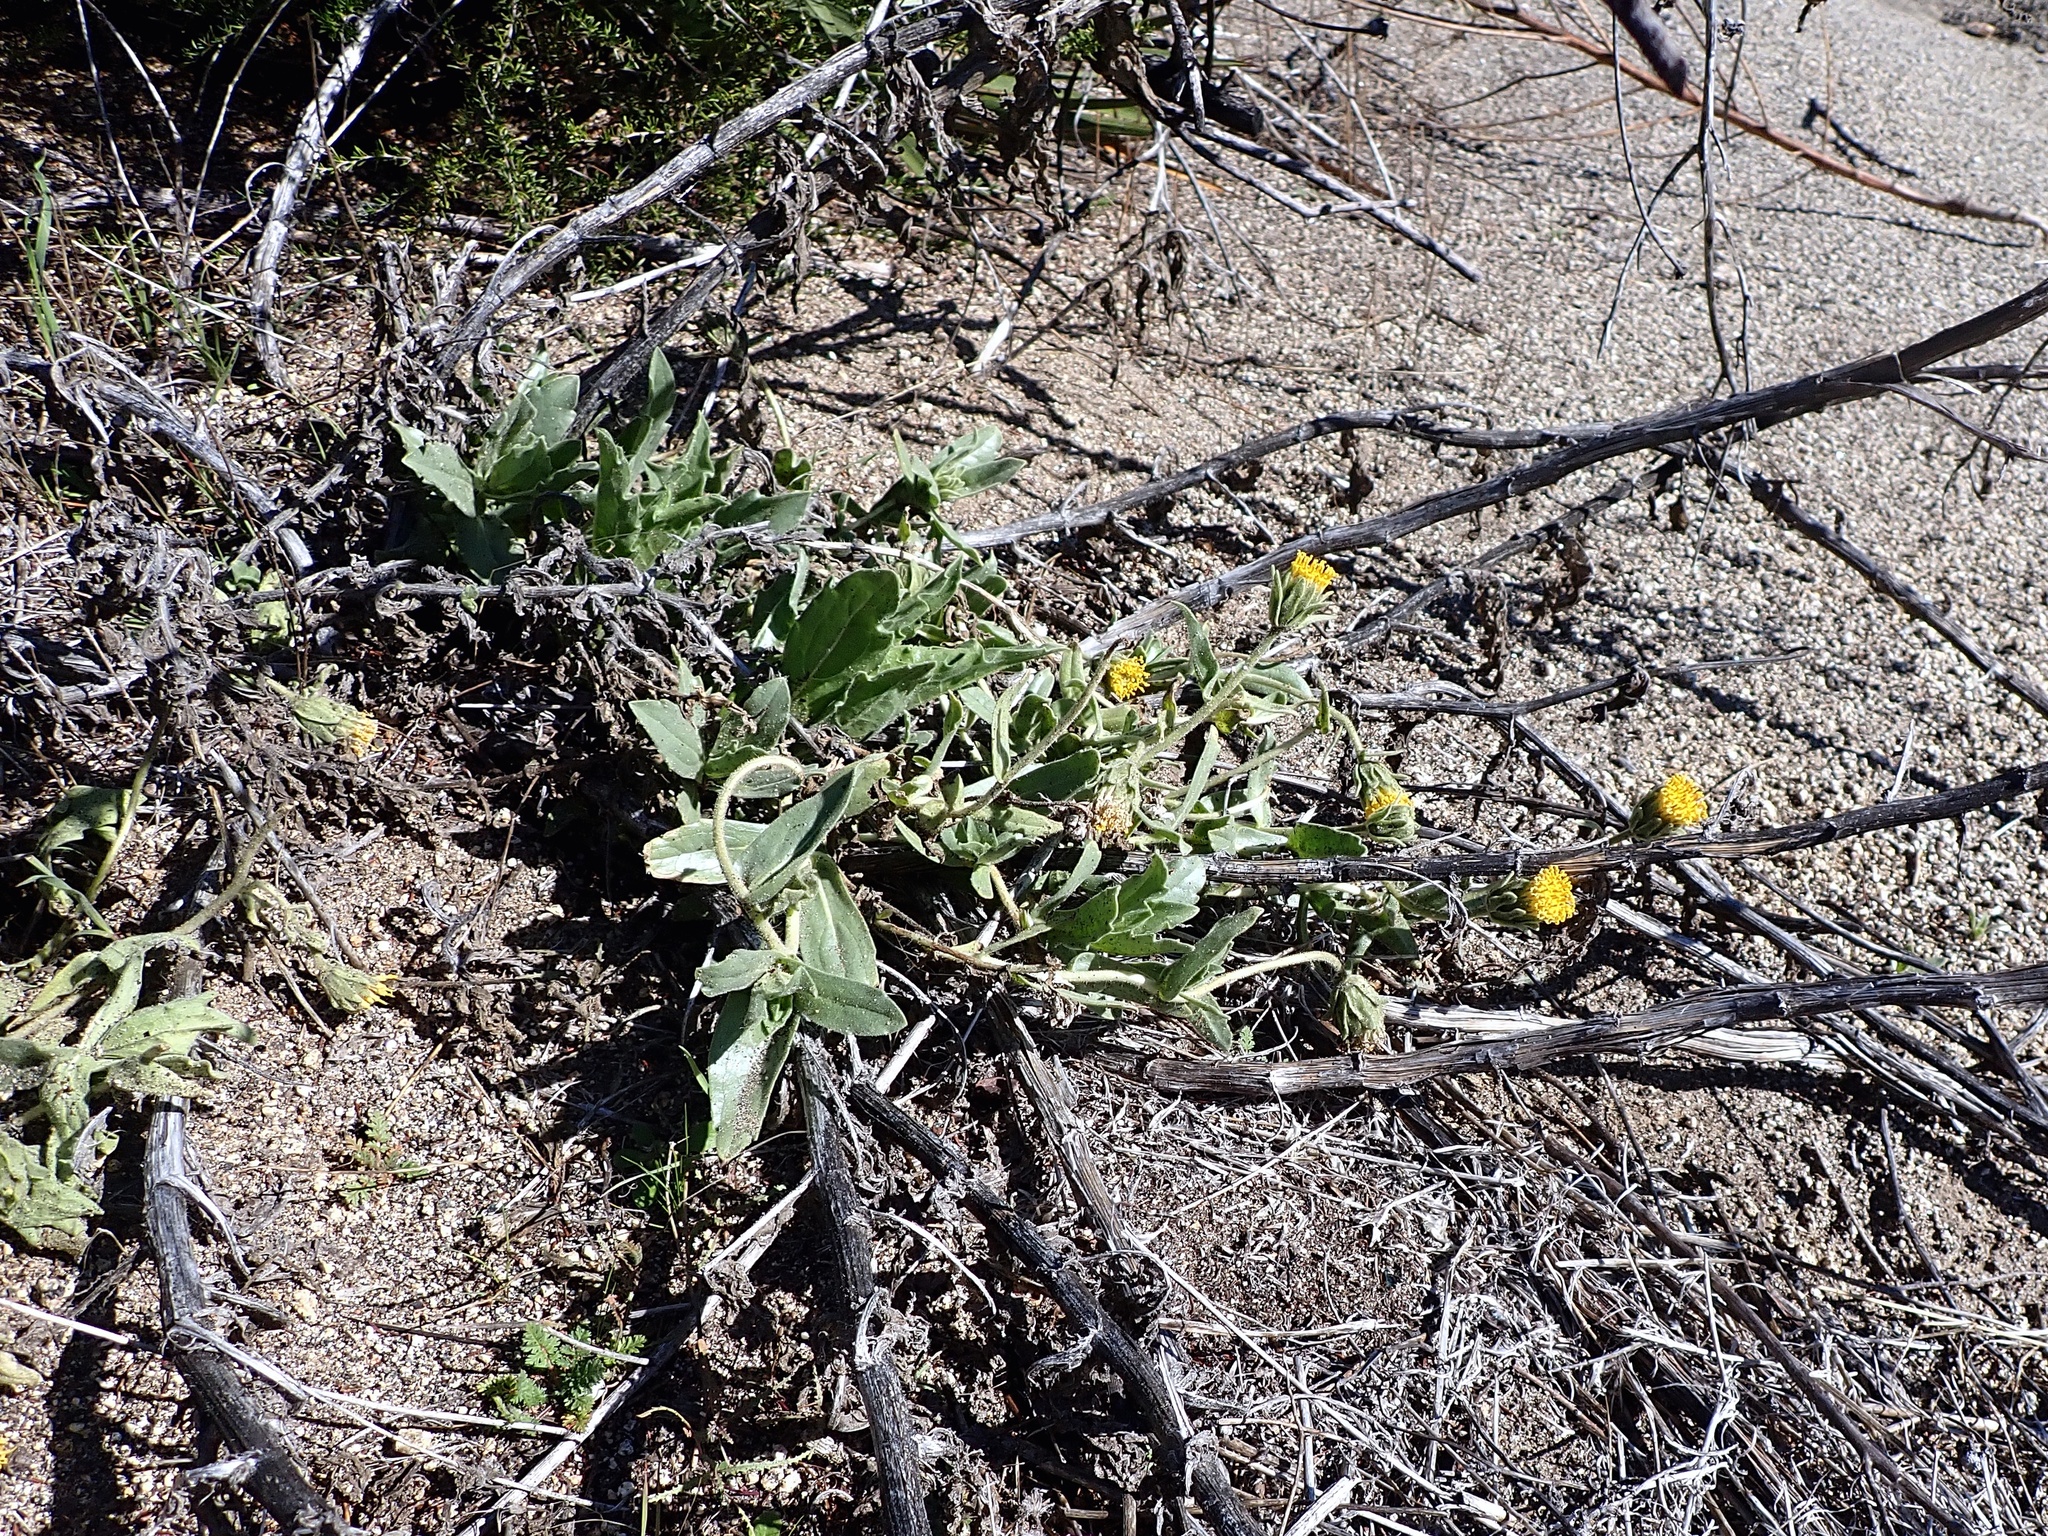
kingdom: Plantae
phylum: Tracheophyta
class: Magnoliopsida
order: Asterales
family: Asteraceae
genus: Geraea
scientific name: Geraea viscida
